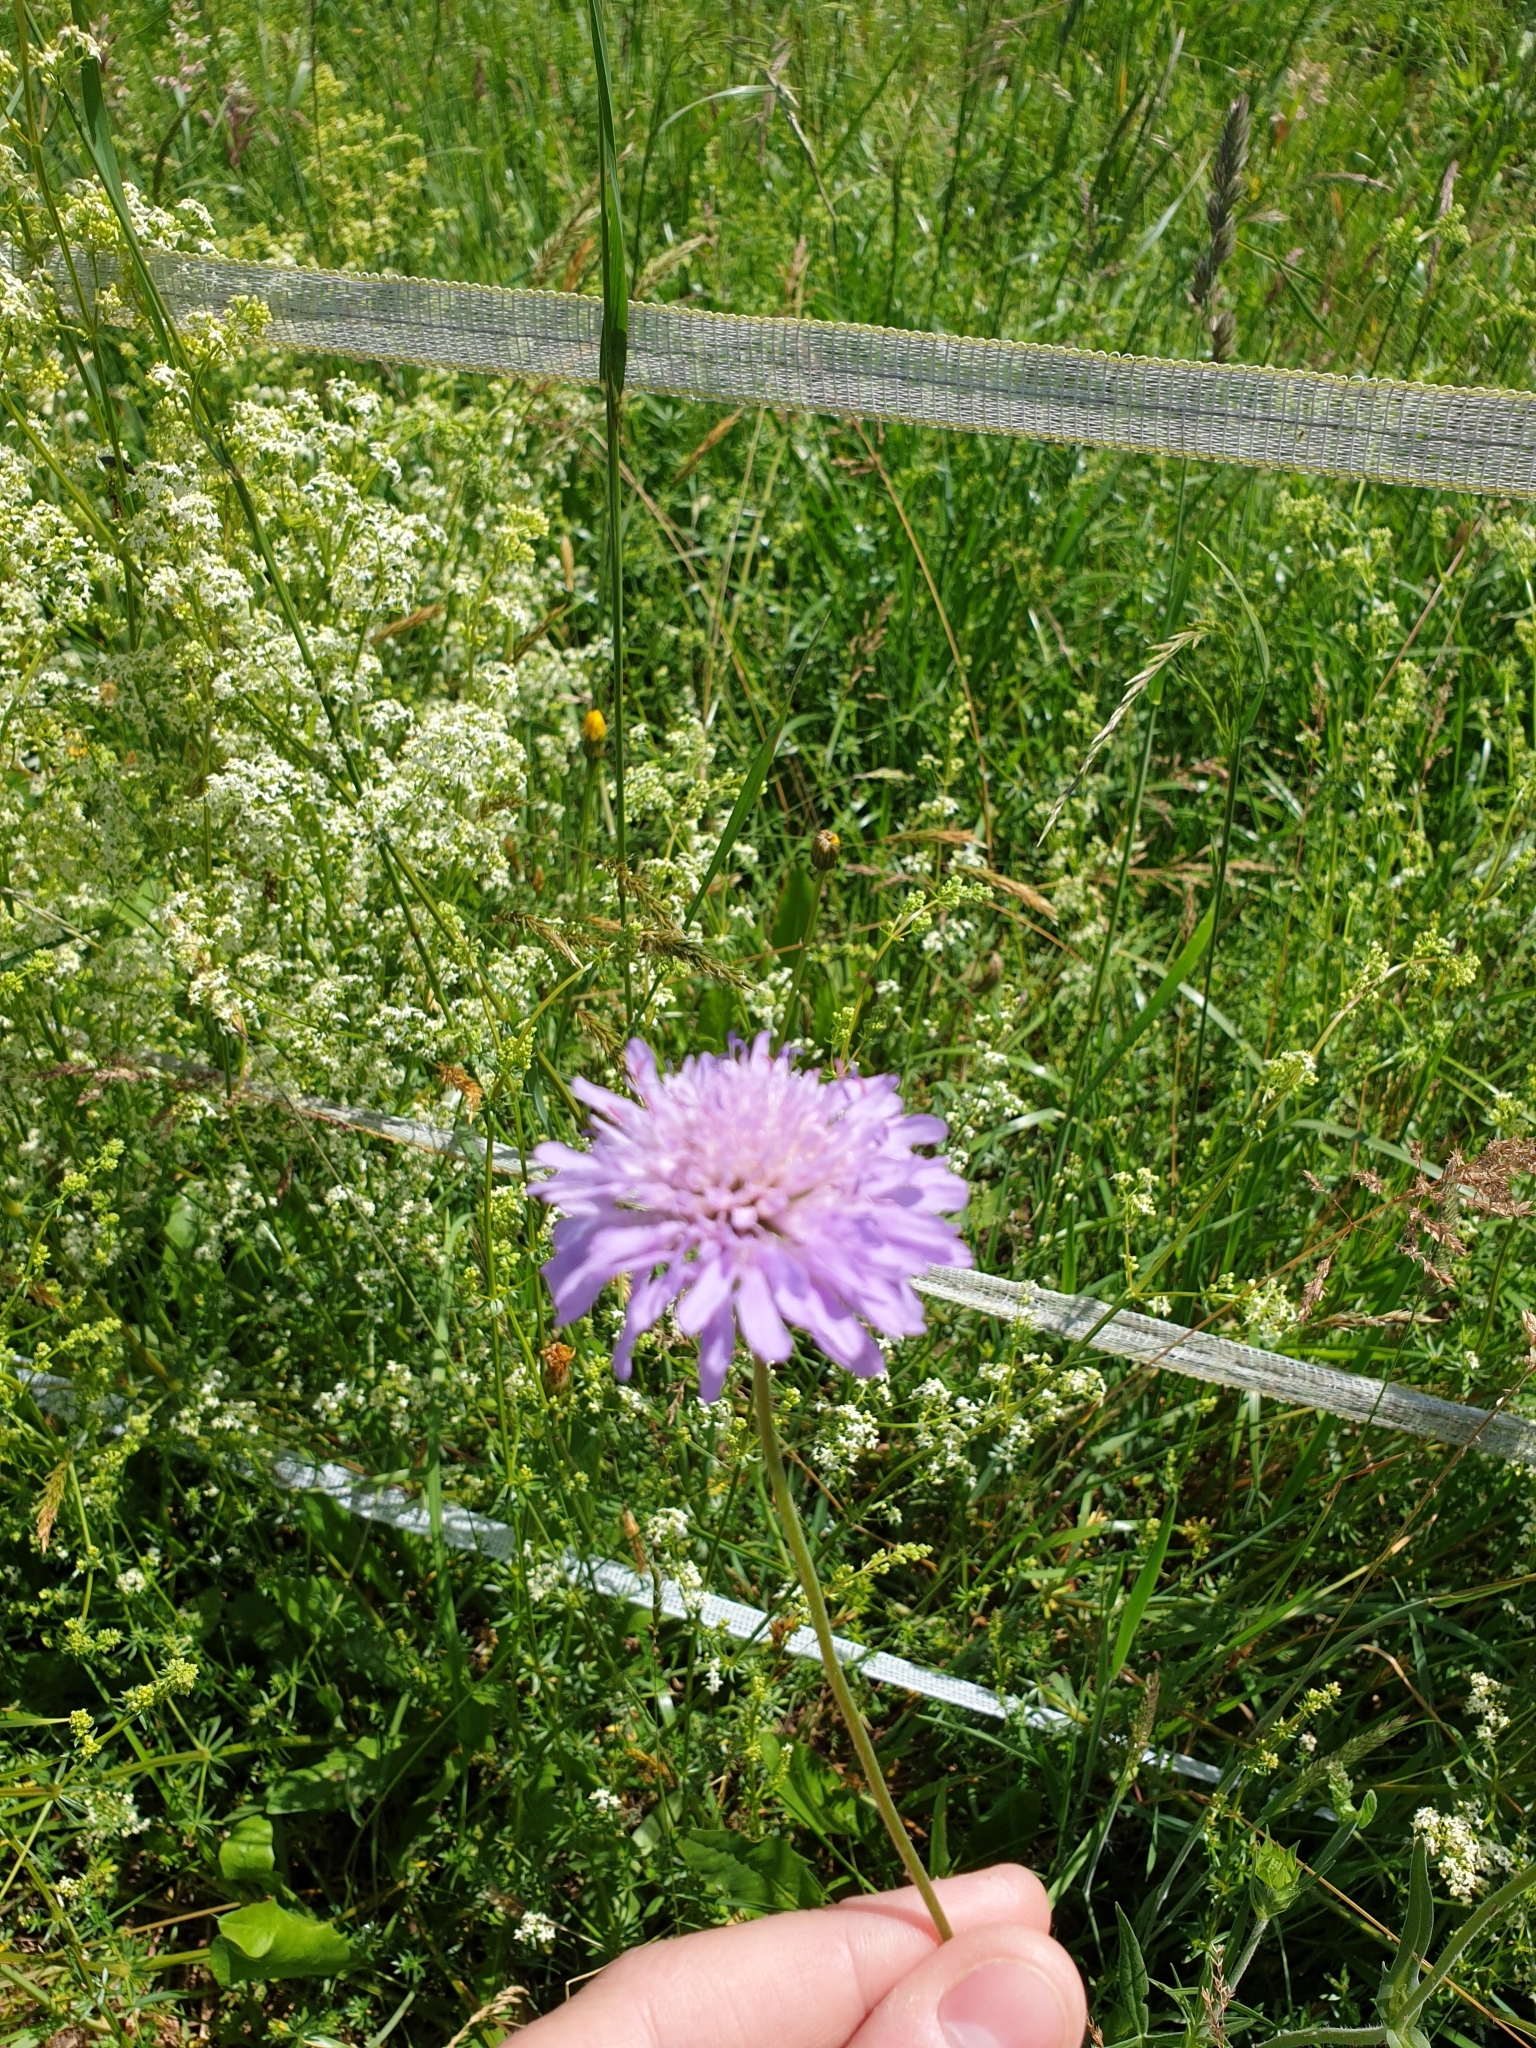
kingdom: Plantae
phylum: Tracheophyta
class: Magnoliopsida
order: Dipsacales
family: Caprifoliaceae
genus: Knautia
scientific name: Knautia arvensis
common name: Field scabiosa
